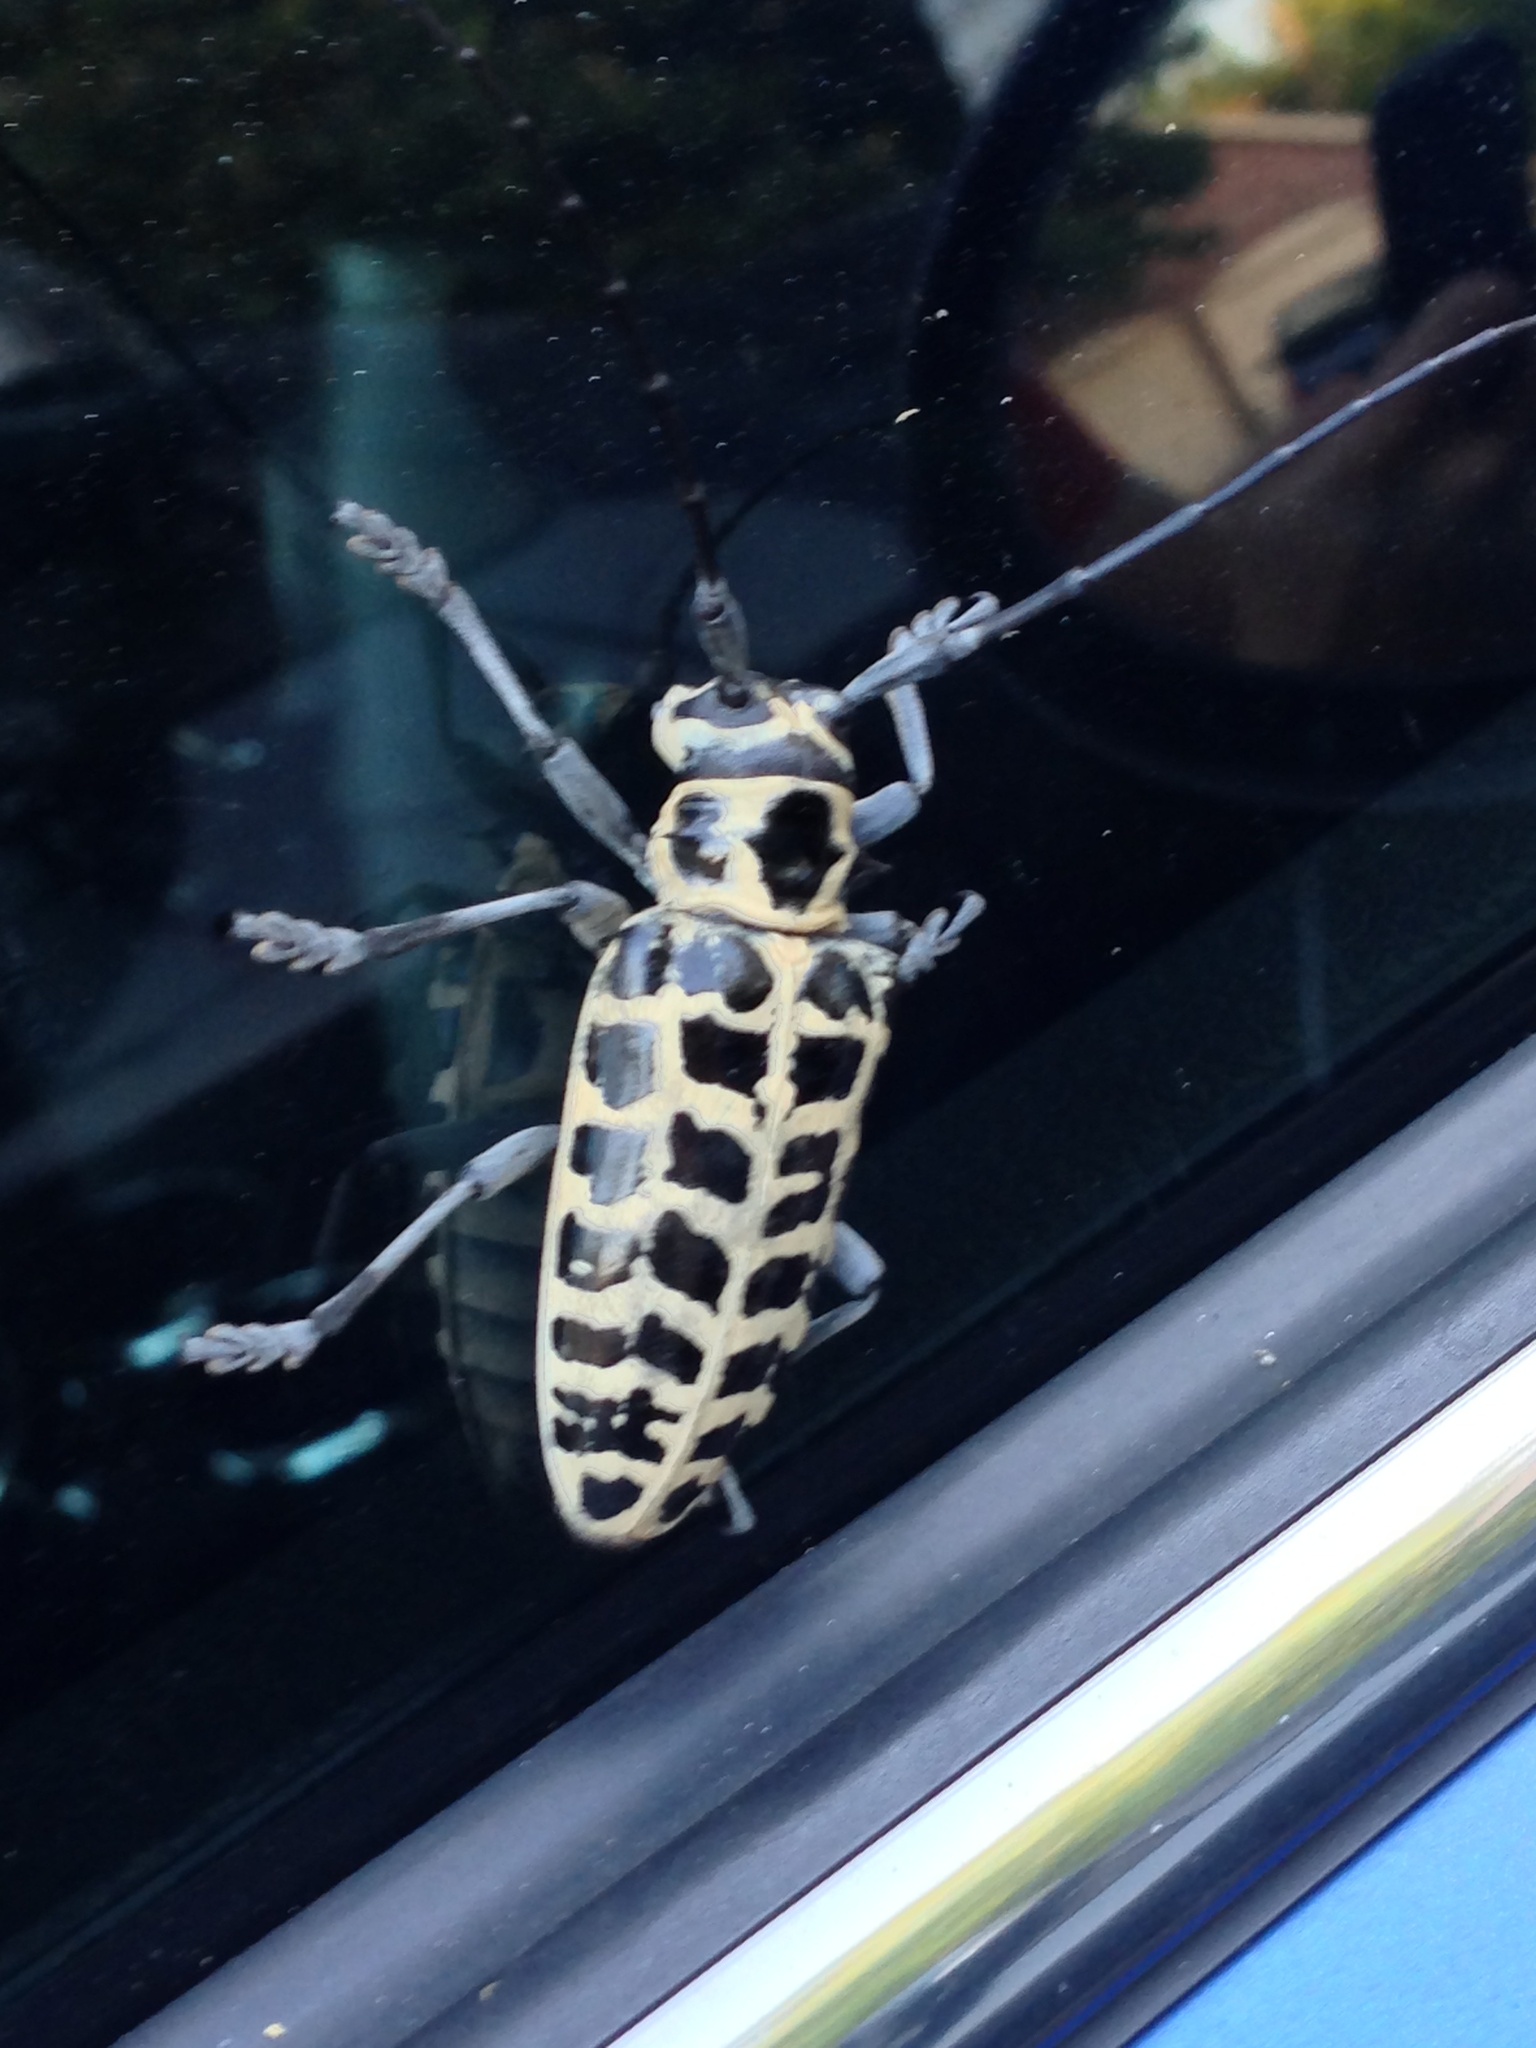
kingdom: Animalia
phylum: Arthropoda
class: Insecta
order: Coleoptera
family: Cerambycidae
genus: Plectrodera
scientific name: Plectrodera scalator
